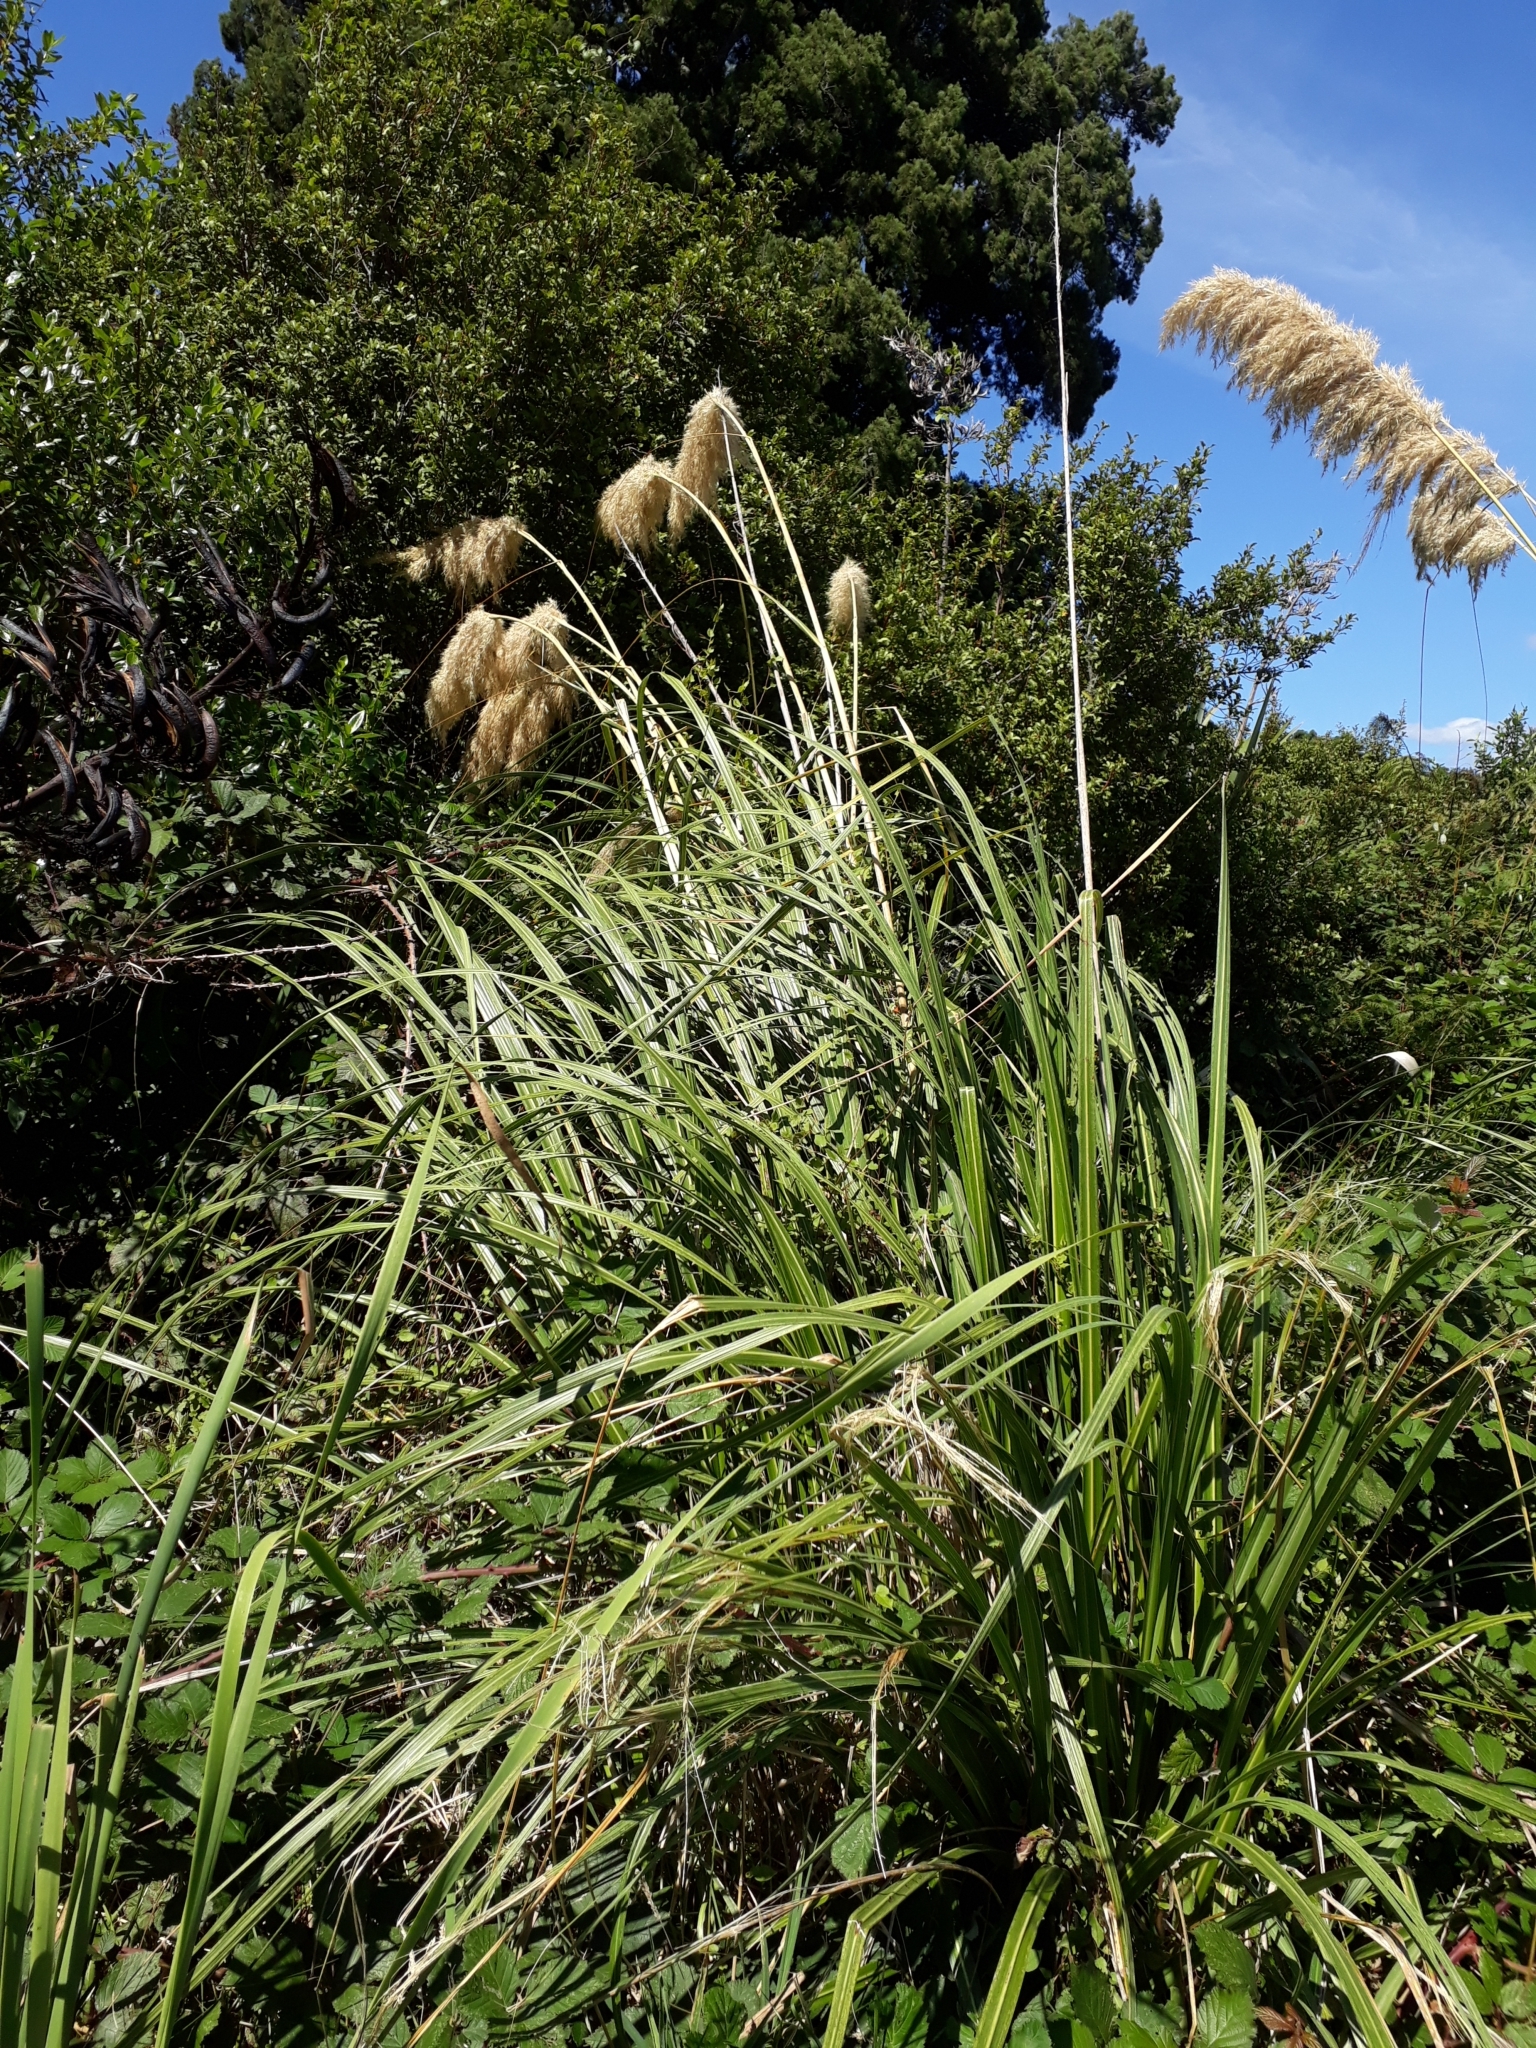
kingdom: Plantae
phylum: Tracheophyta
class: Liliopsida
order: Poales
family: Poaceae
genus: Austroderia
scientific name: Austroderia toetoe
